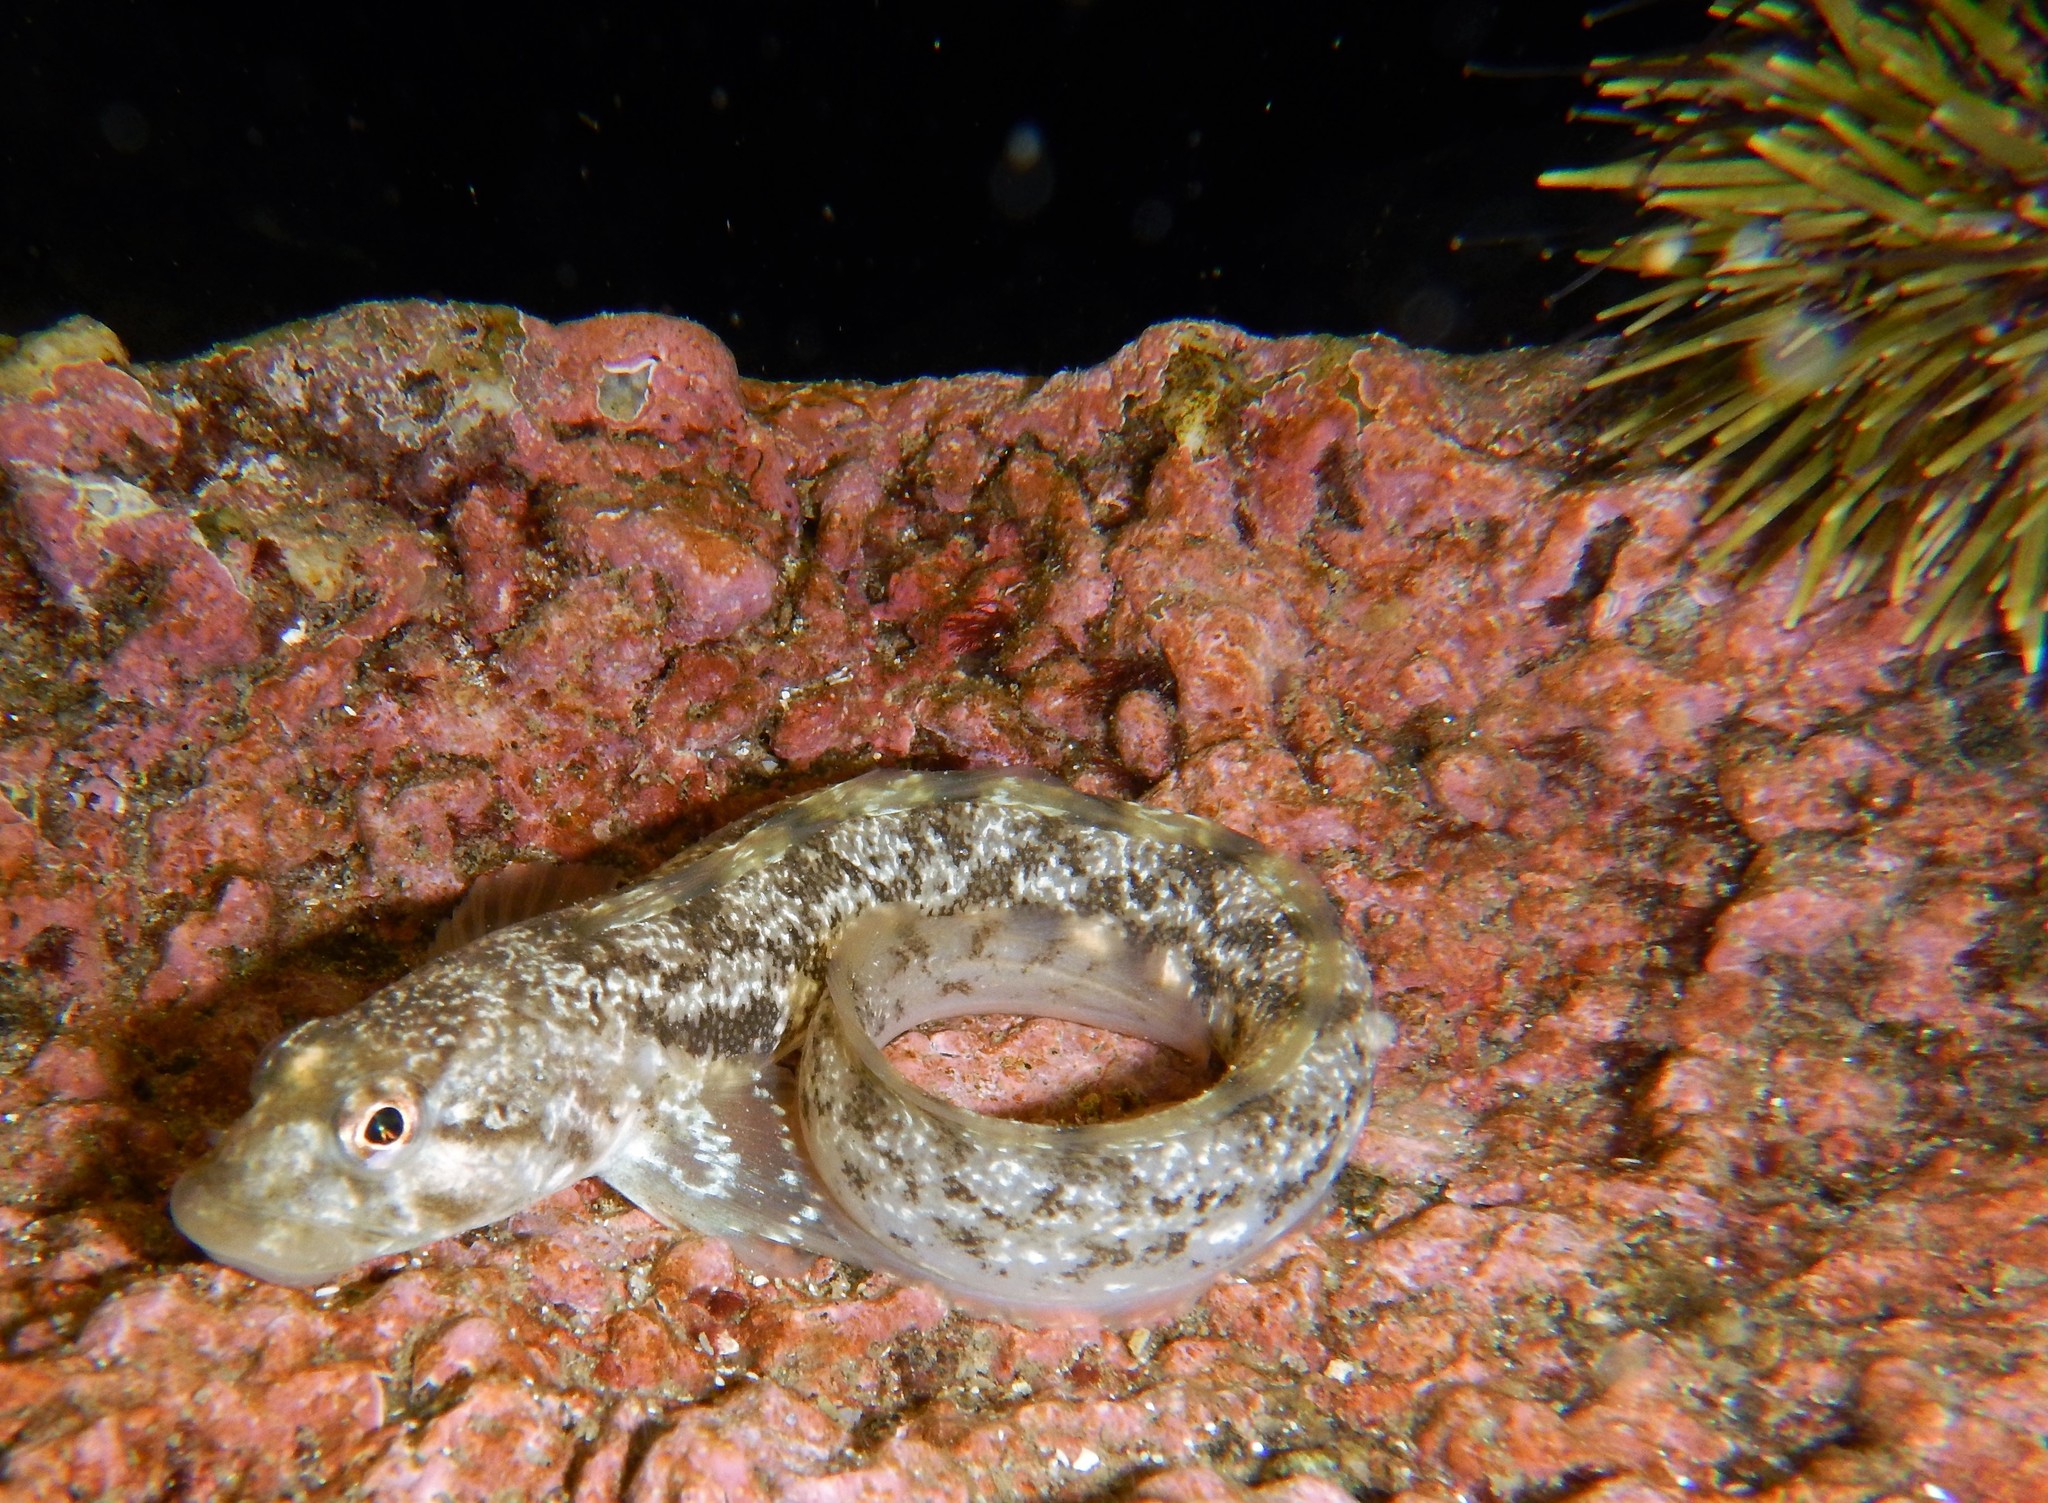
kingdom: Animalia
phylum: Chordata
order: Perciformes
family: Zoarcidae
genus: Zoarces
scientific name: Zoarces viviparus
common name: Viviparous blenny
